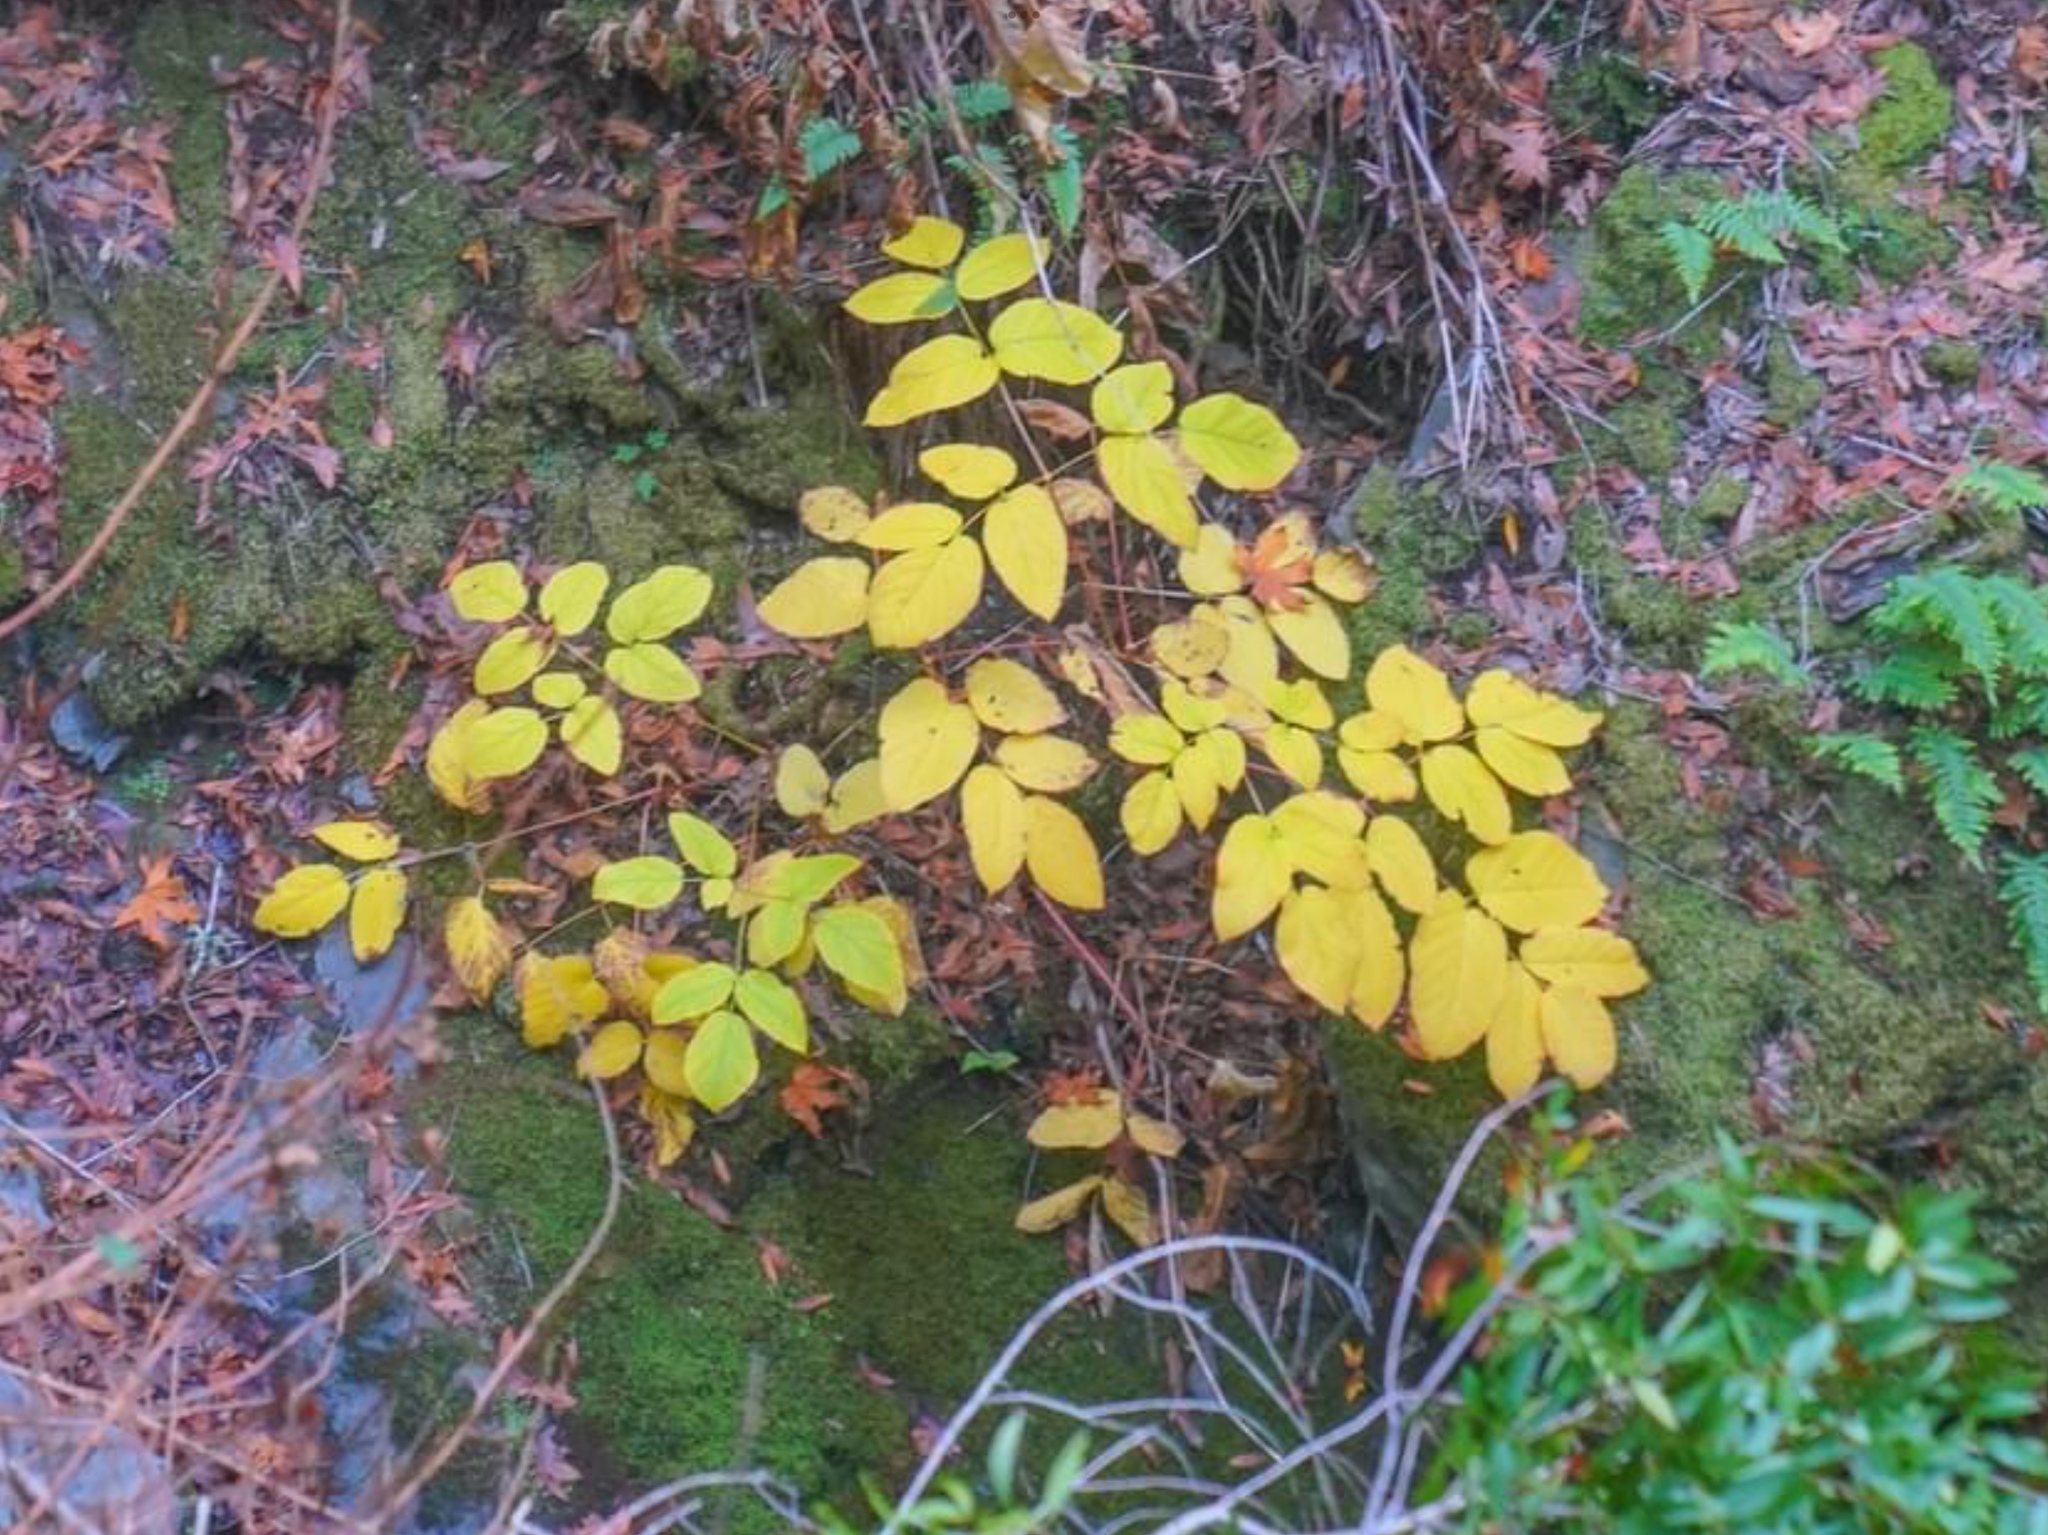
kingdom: Plantae
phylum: Tracheophyta
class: Magnoliopsida
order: Apiales
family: Araliaceae
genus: Aralia
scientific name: Aralia californica
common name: California-ginseng
